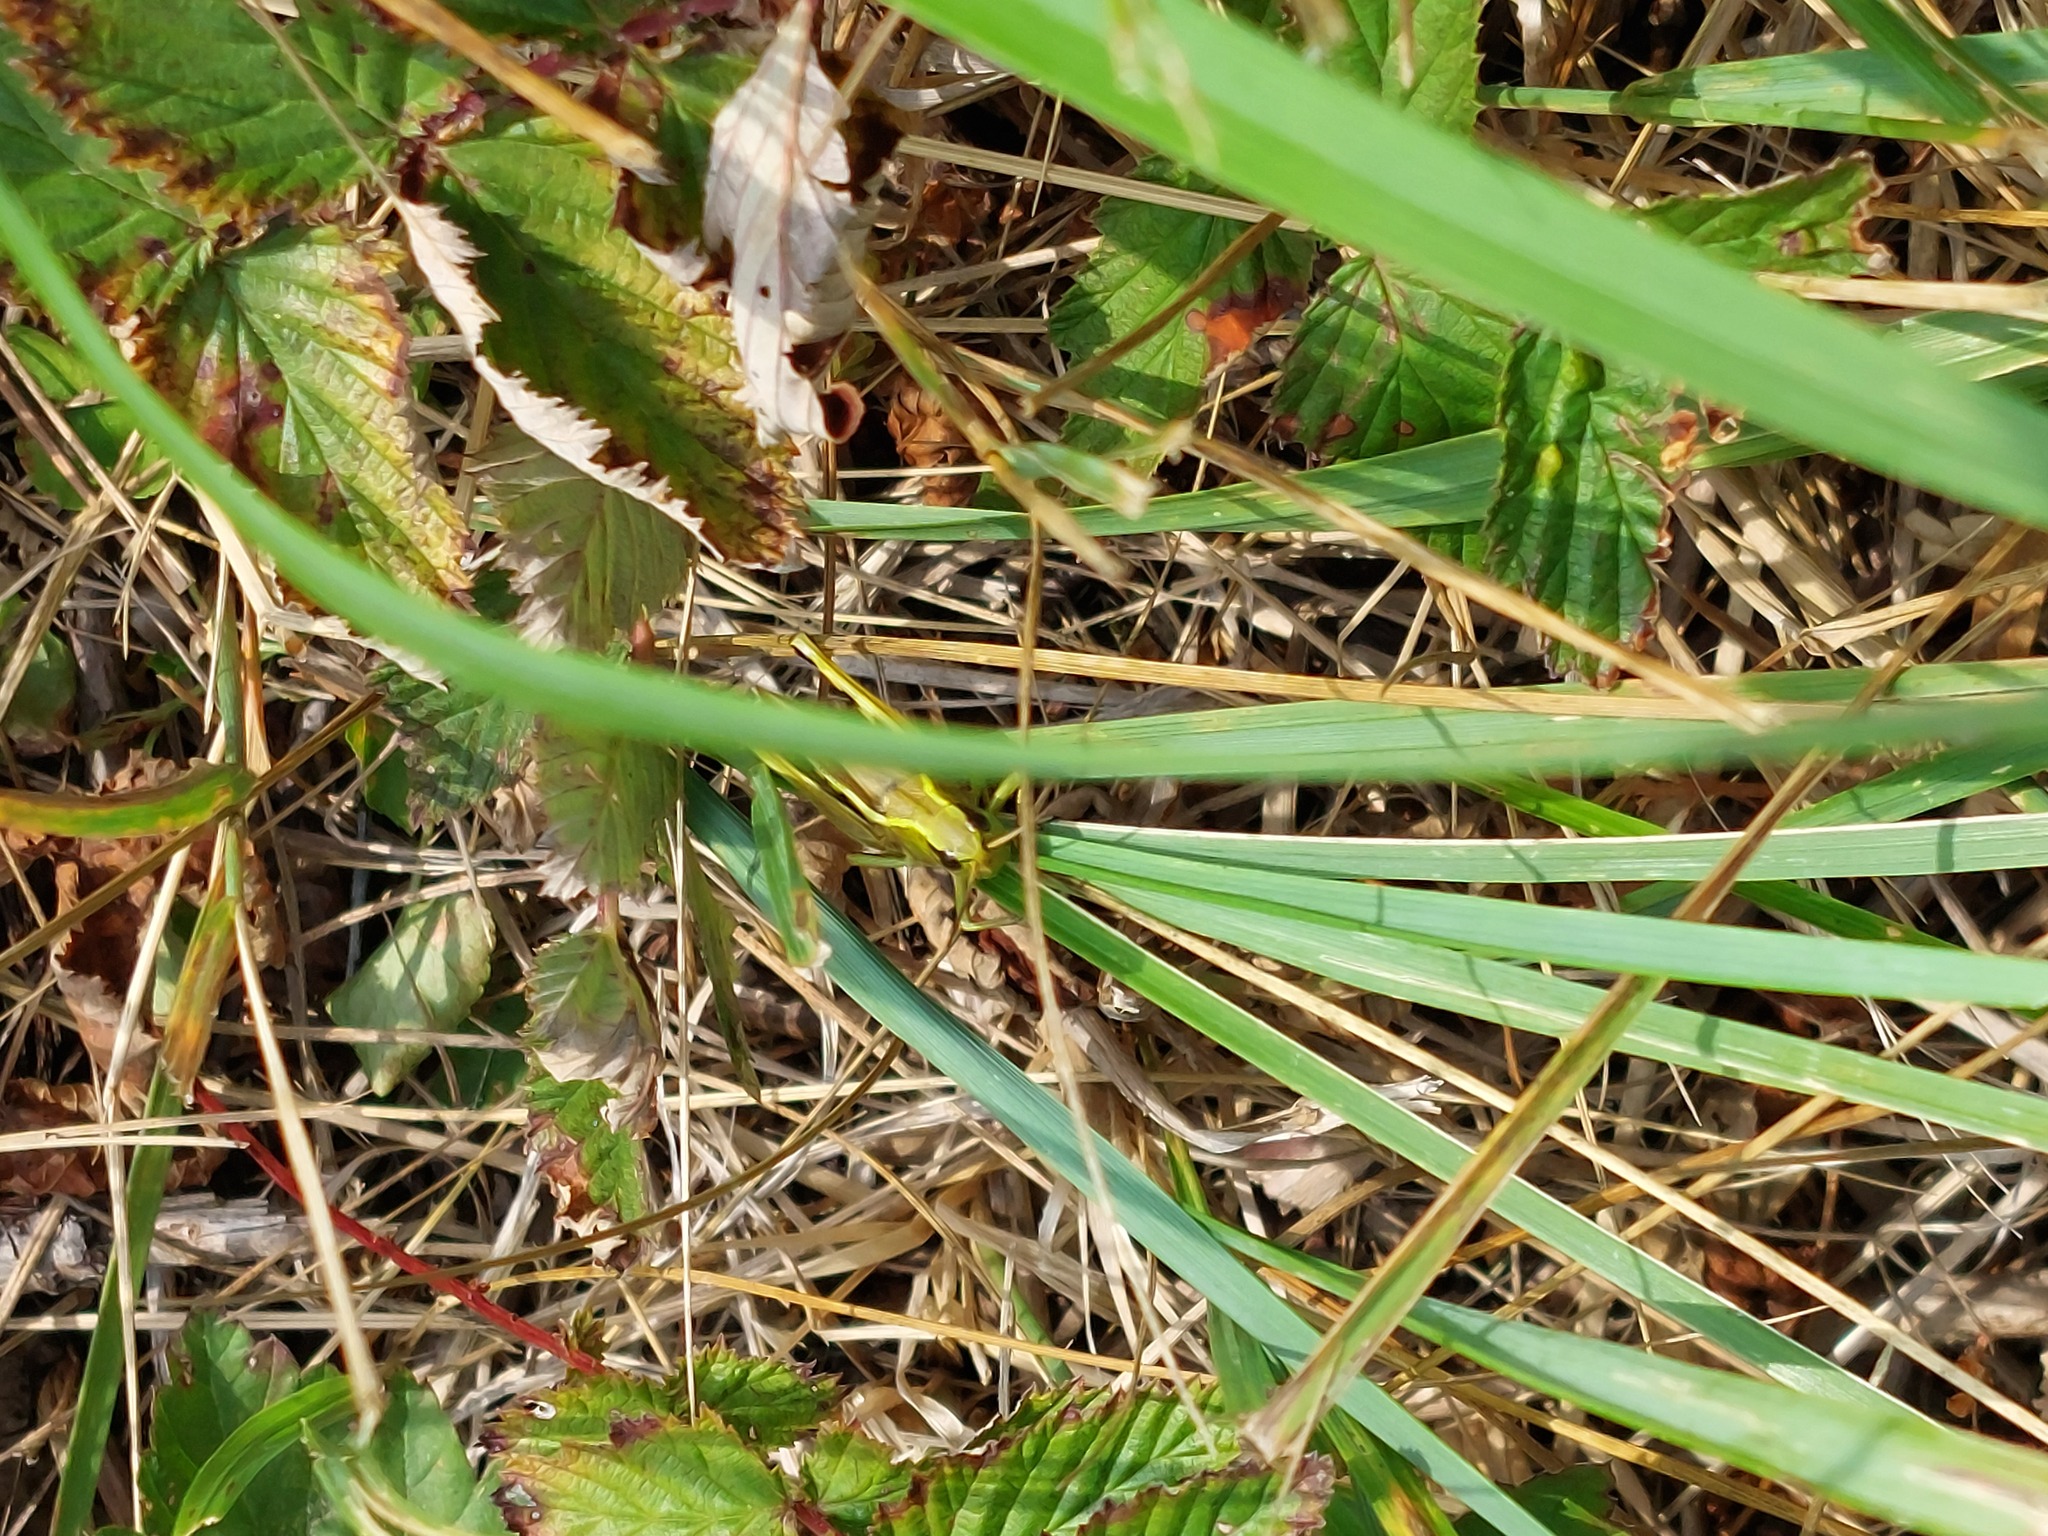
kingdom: Animalia
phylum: Arthropoda
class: Insecta
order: Orthoptera
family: Acrididae
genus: Stethophyma
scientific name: Stethophyma grossum
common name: Large marsh grasshopper
